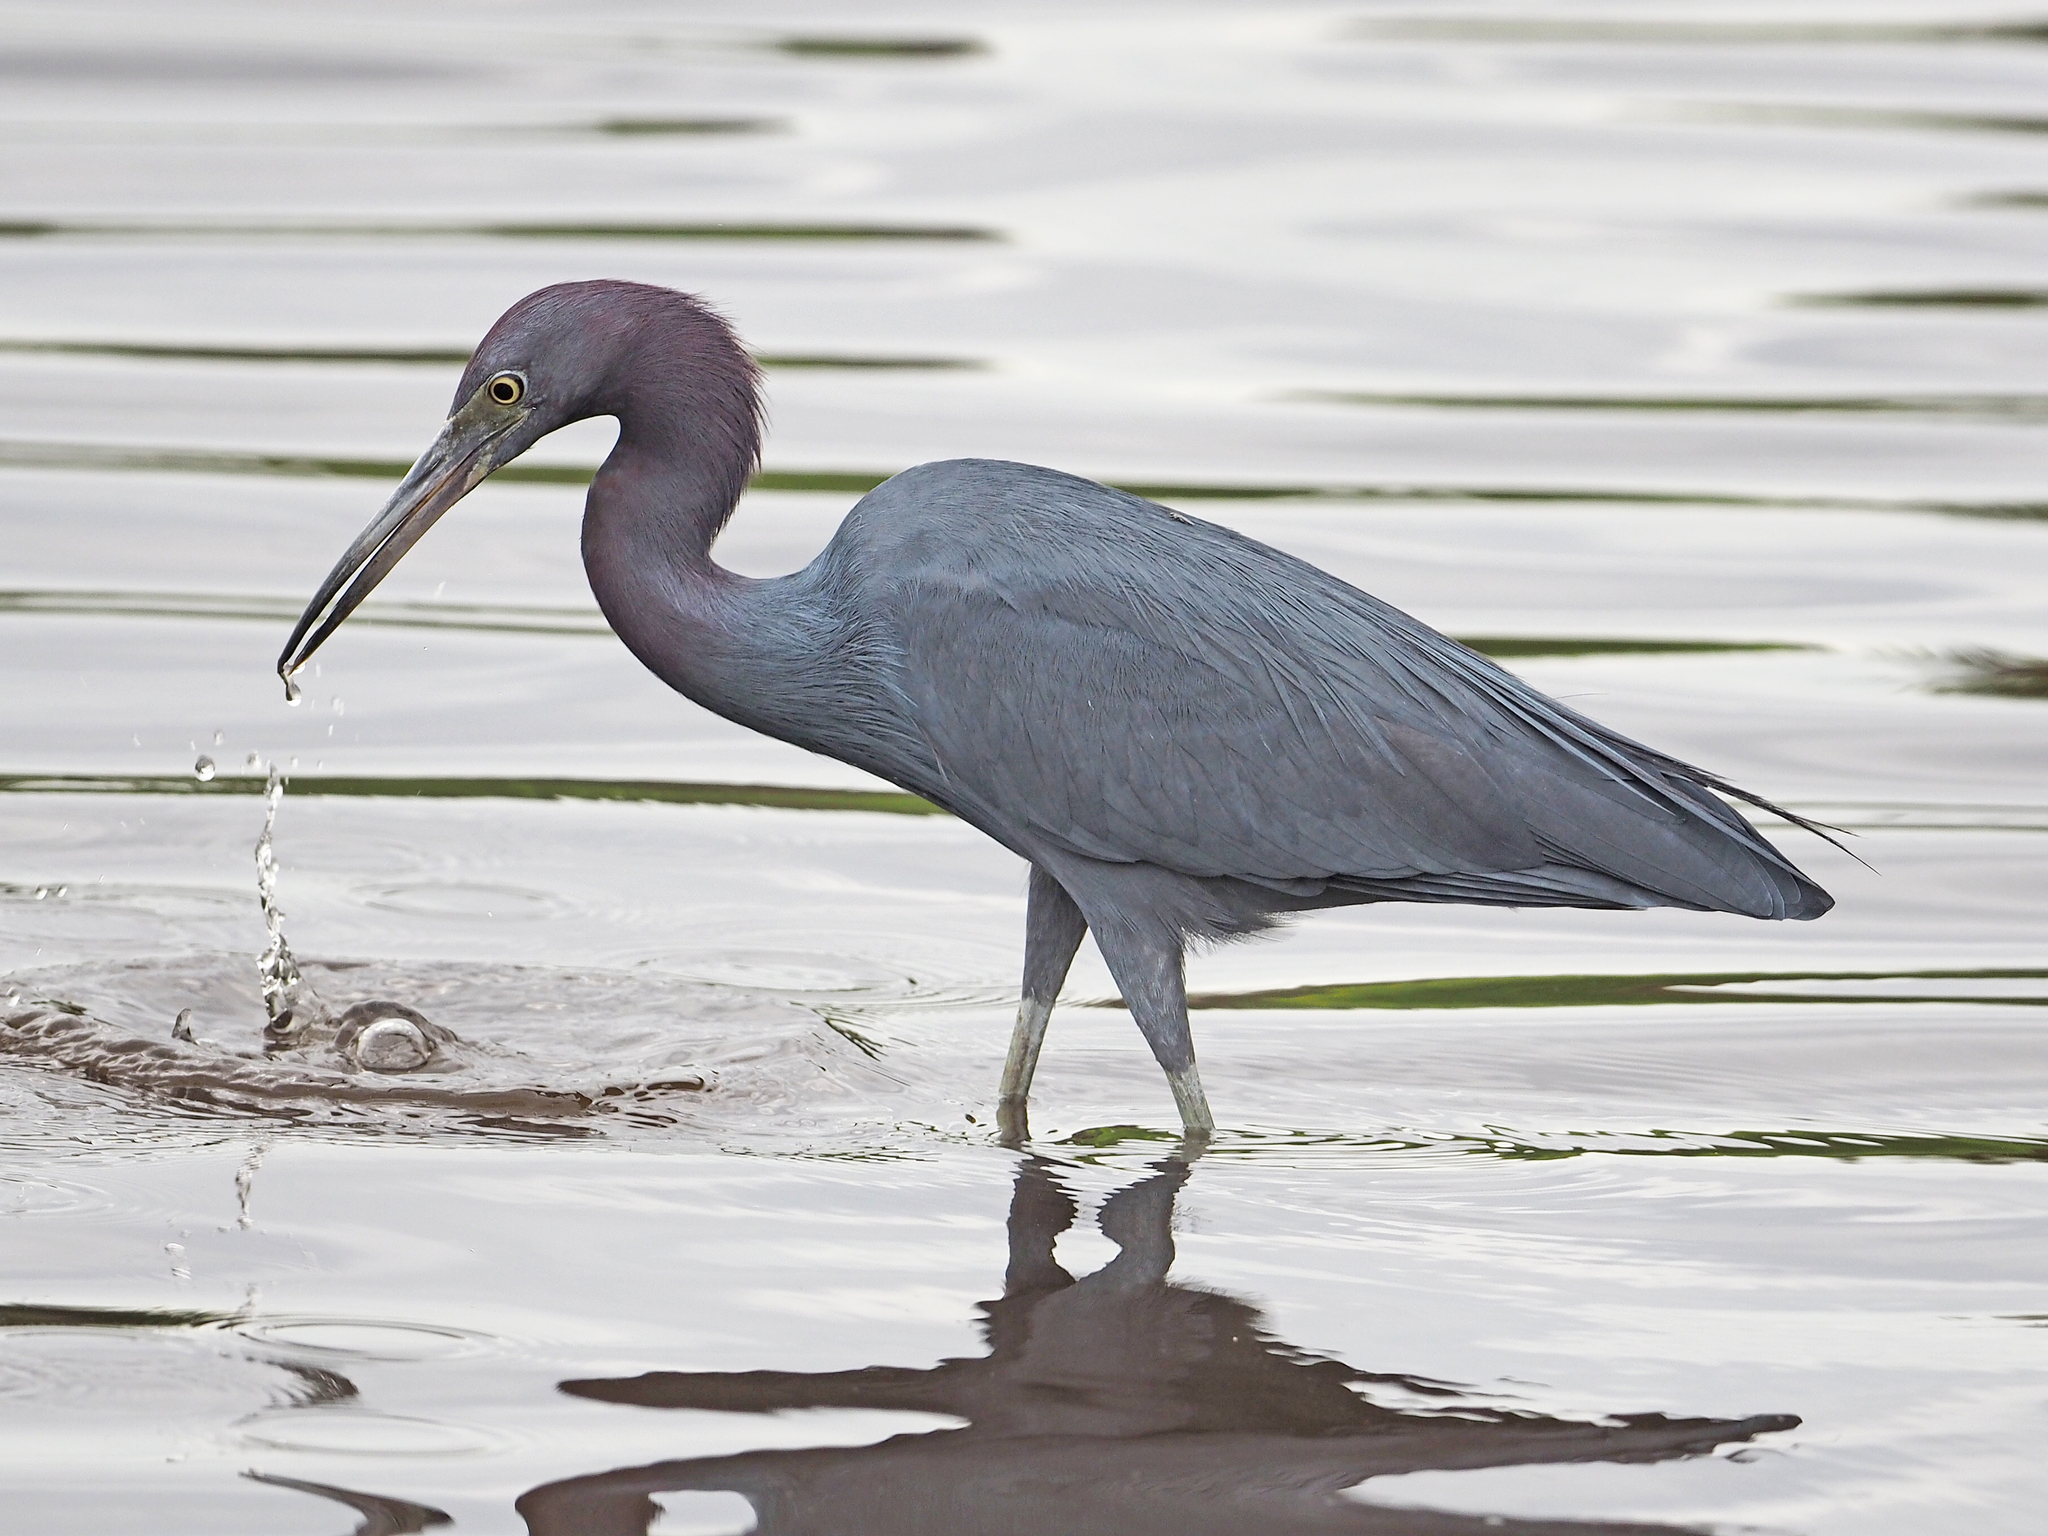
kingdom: Animalia
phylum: Chordata
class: Aves
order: Pelecaniformes
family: Ardeidae
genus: Egretta
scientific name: Egretta caerulea
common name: Little blue heron
